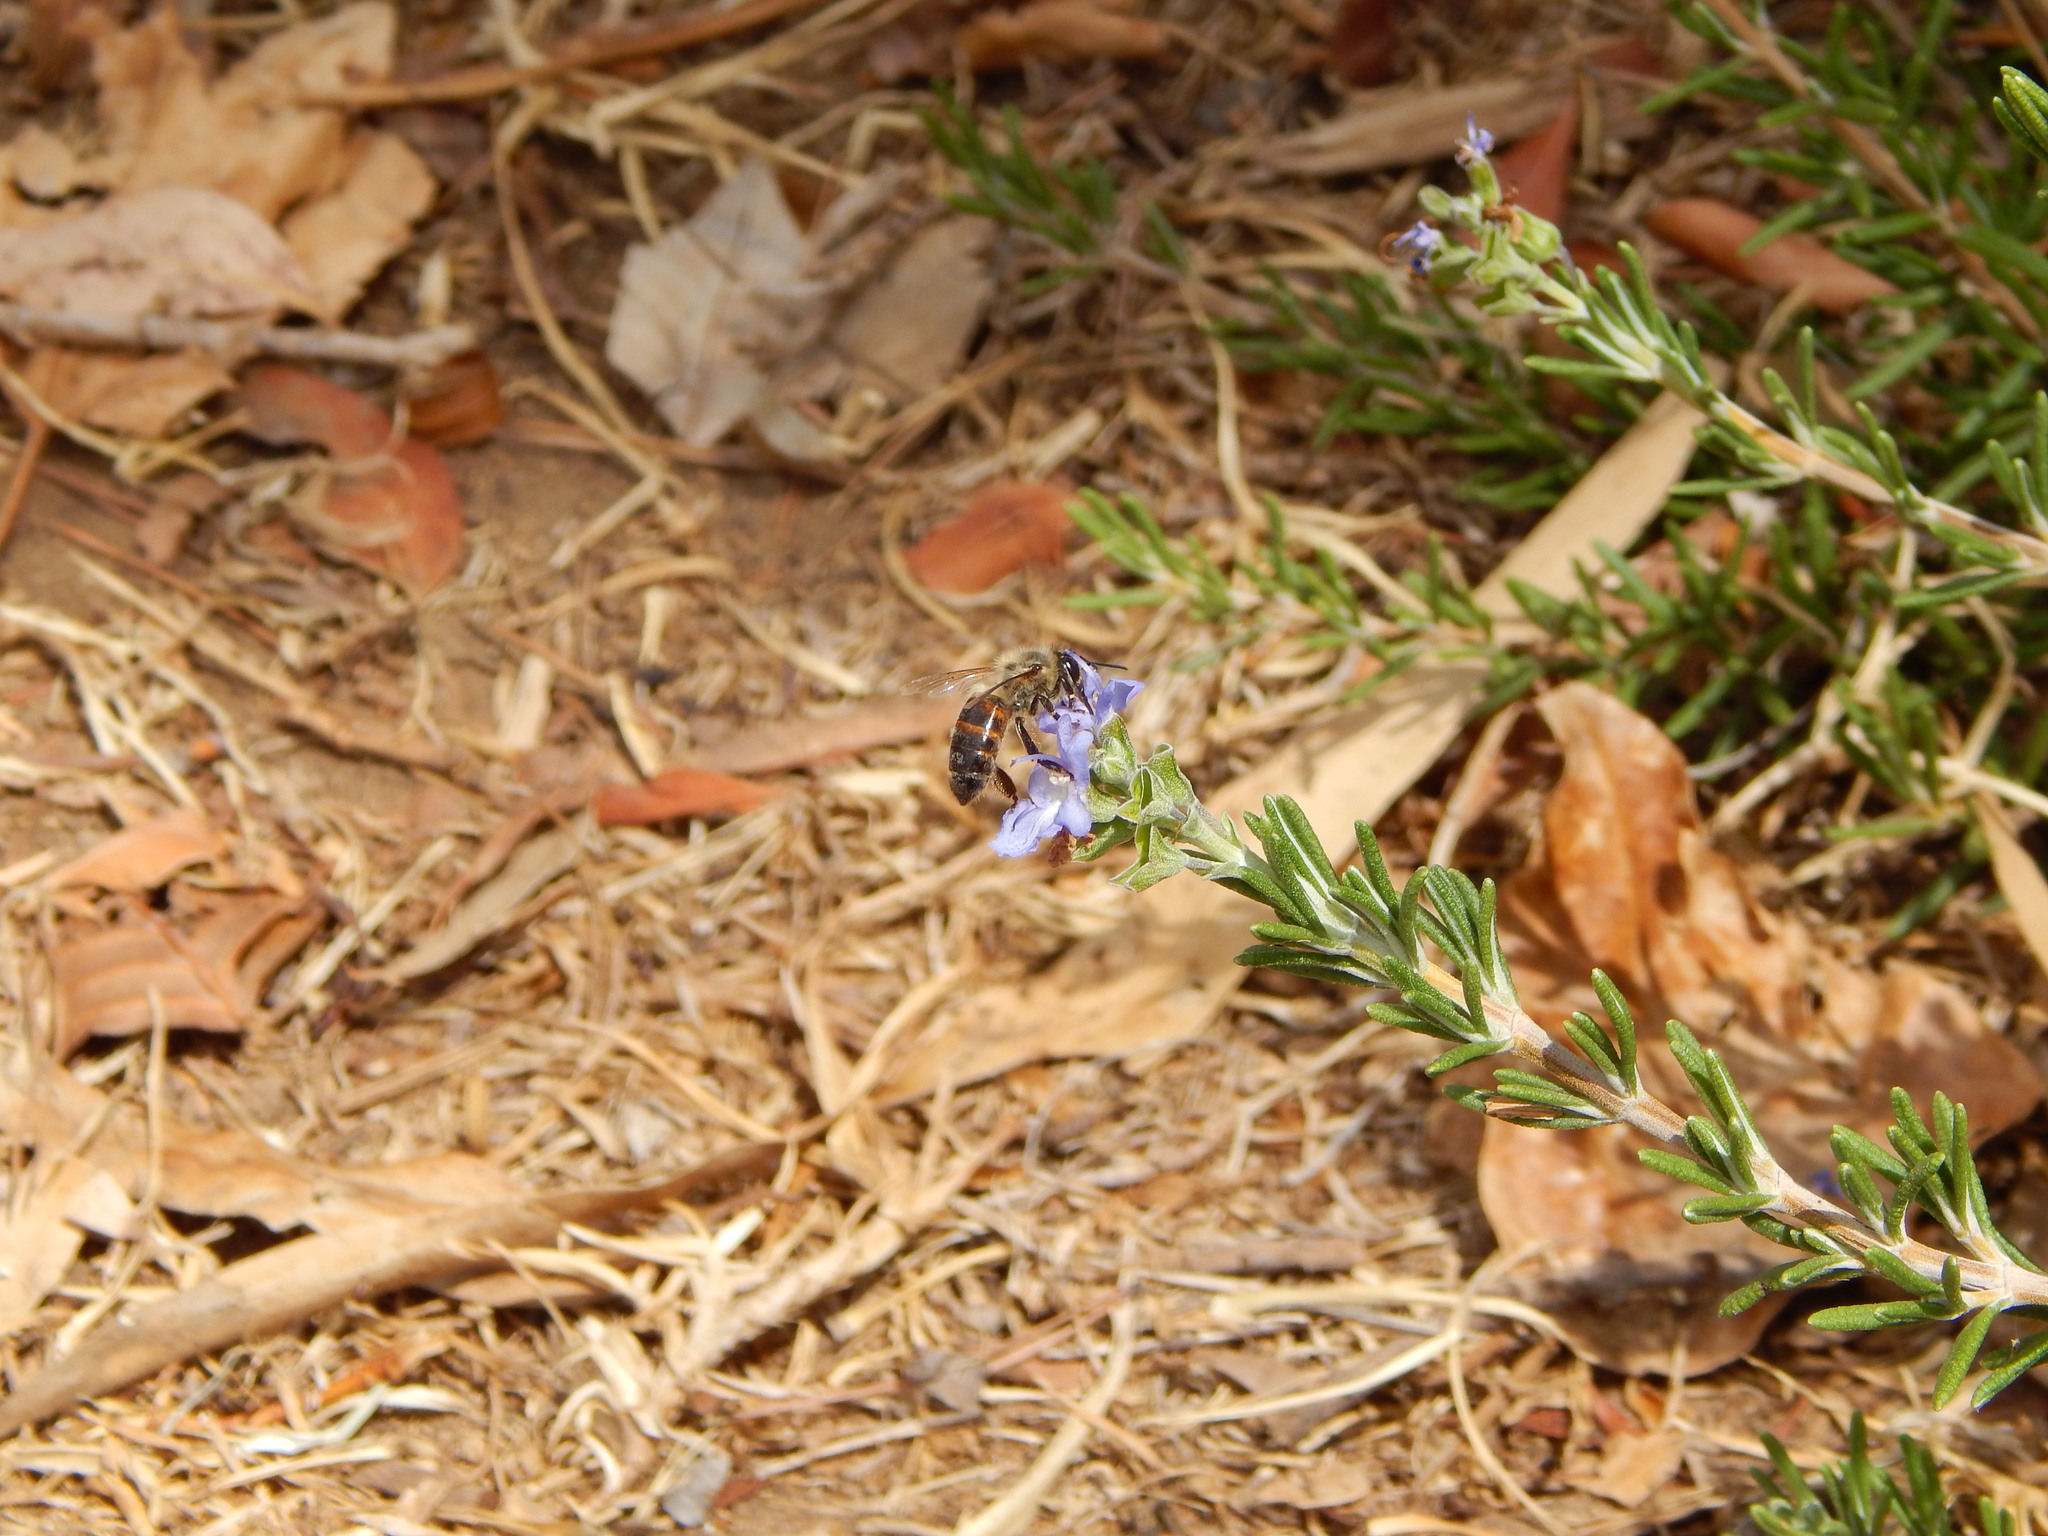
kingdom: Animalia
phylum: Arthropoda
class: Insecta
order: Hymenoptera
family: Apidae
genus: Apis
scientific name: Apis mellifera
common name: Honey bee
